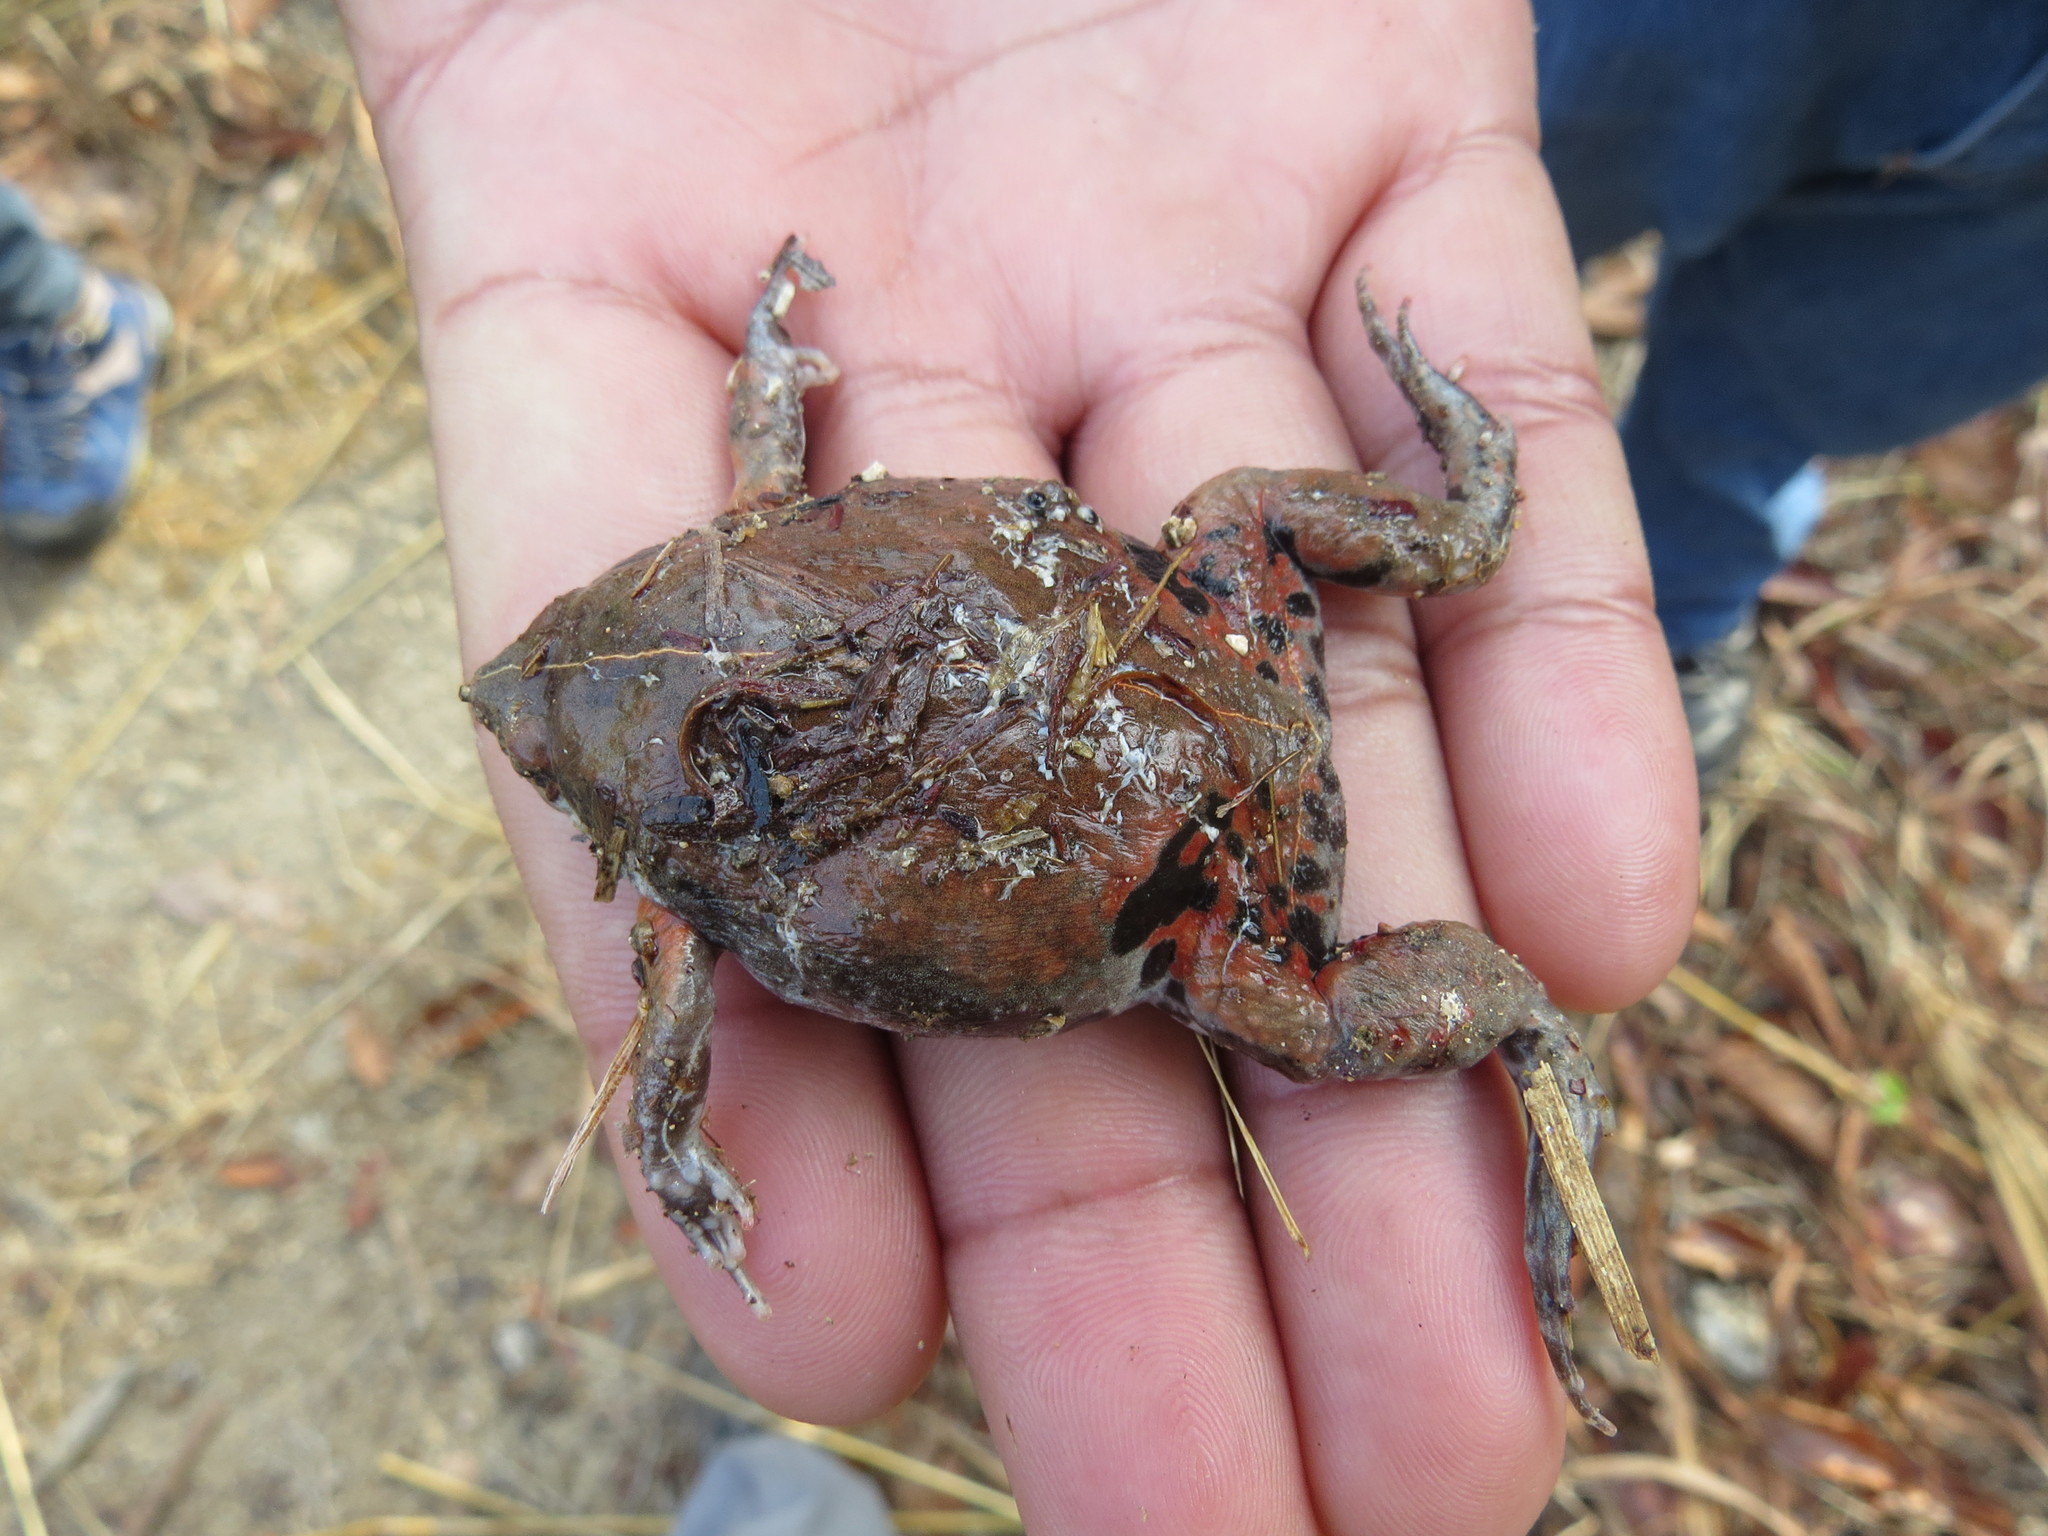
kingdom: Animalia
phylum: Chordata
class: Amphibia
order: Anura
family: Microhylidae
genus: Hypopachus
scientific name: Hypopachus variolosus
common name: Sheep frog
